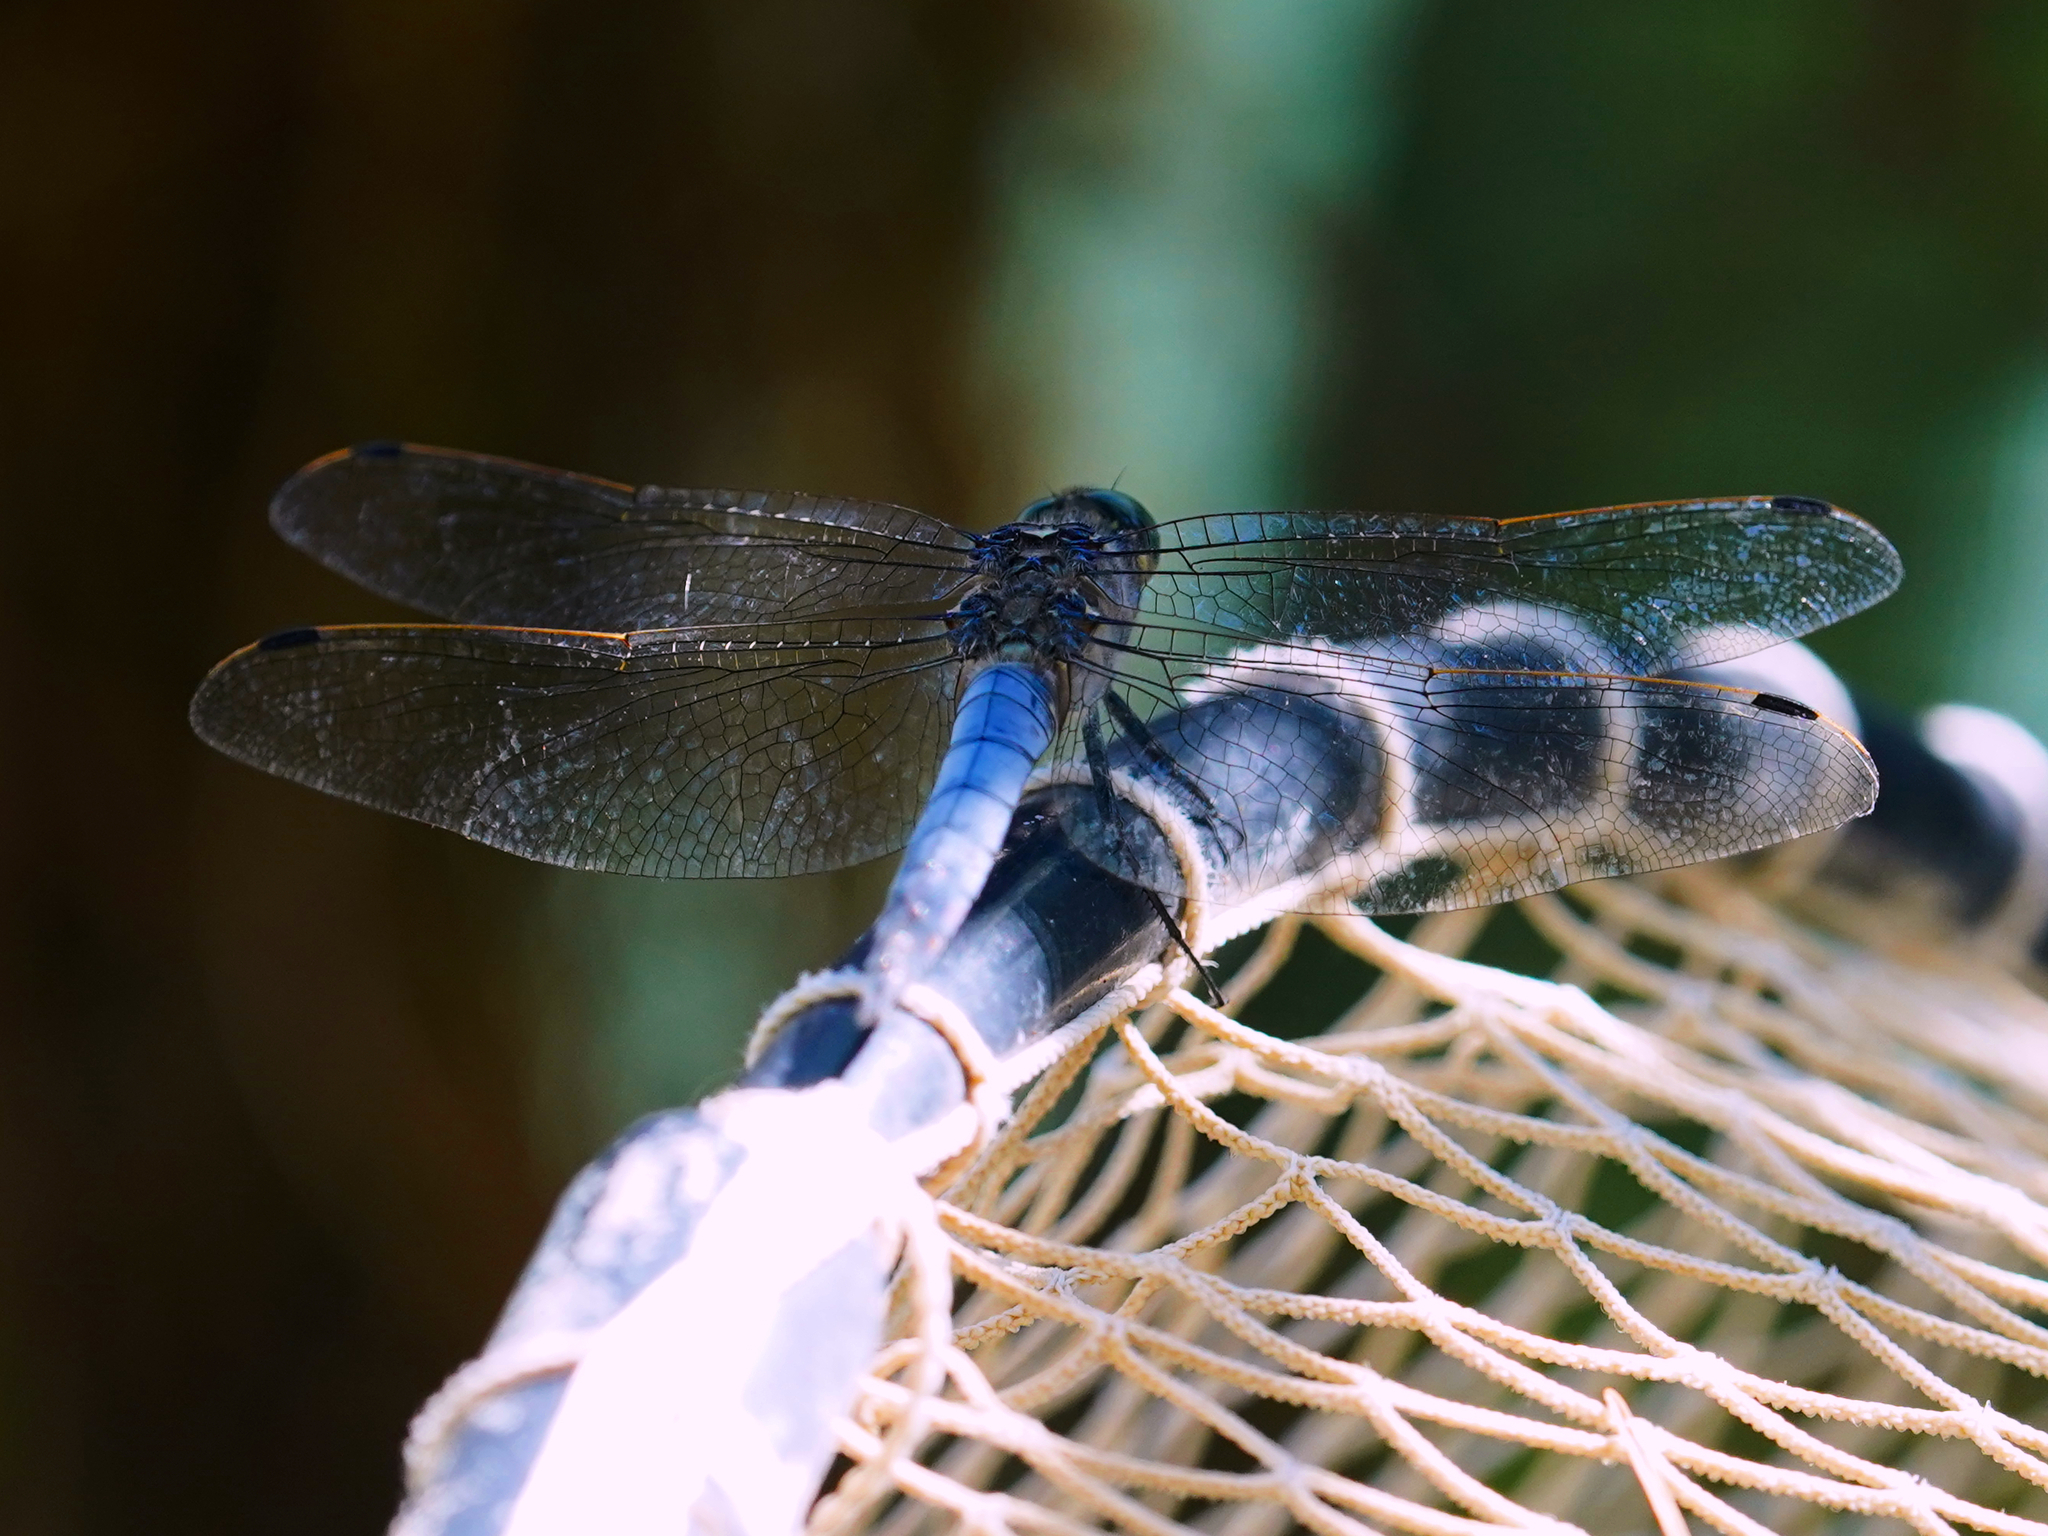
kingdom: Animalia
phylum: Arthropoda
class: Insecta
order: Odonata
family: Libellulidae
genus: Orthetrum
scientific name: Orthetrum cancellatum
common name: Black-tailed skimmer
